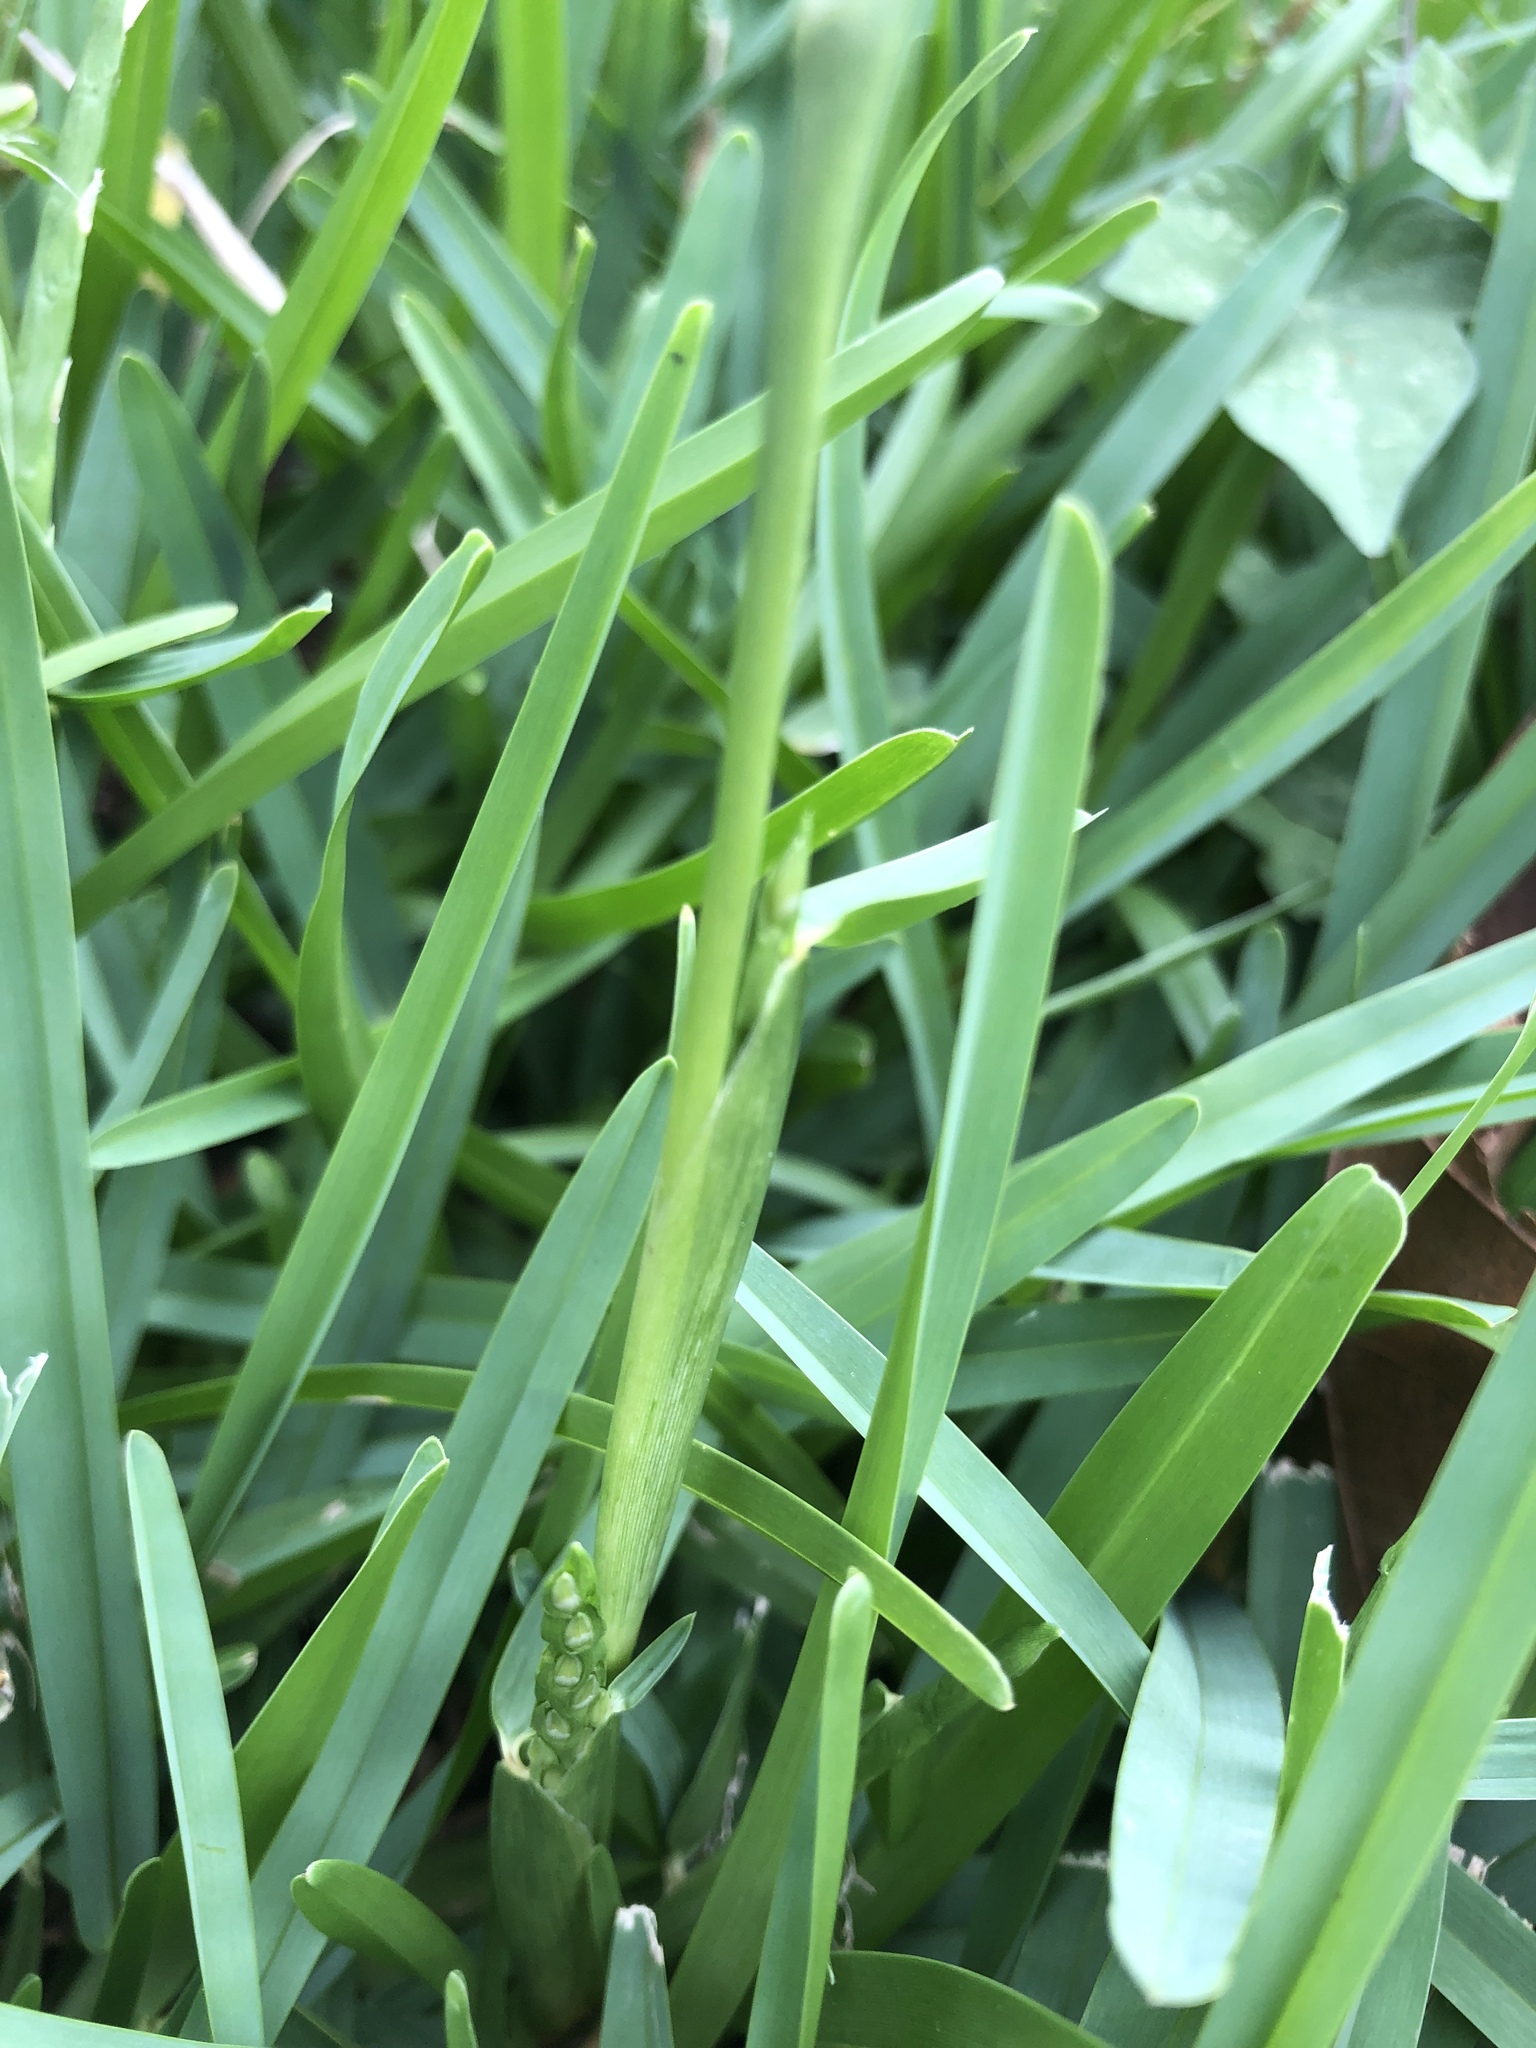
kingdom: Plantae
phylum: Tracheophyta
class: Liliopsida
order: Poales
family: Poaceae
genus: Stenotaphrum
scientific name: Stenotaphrum secundatum
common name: St. augustine grass
